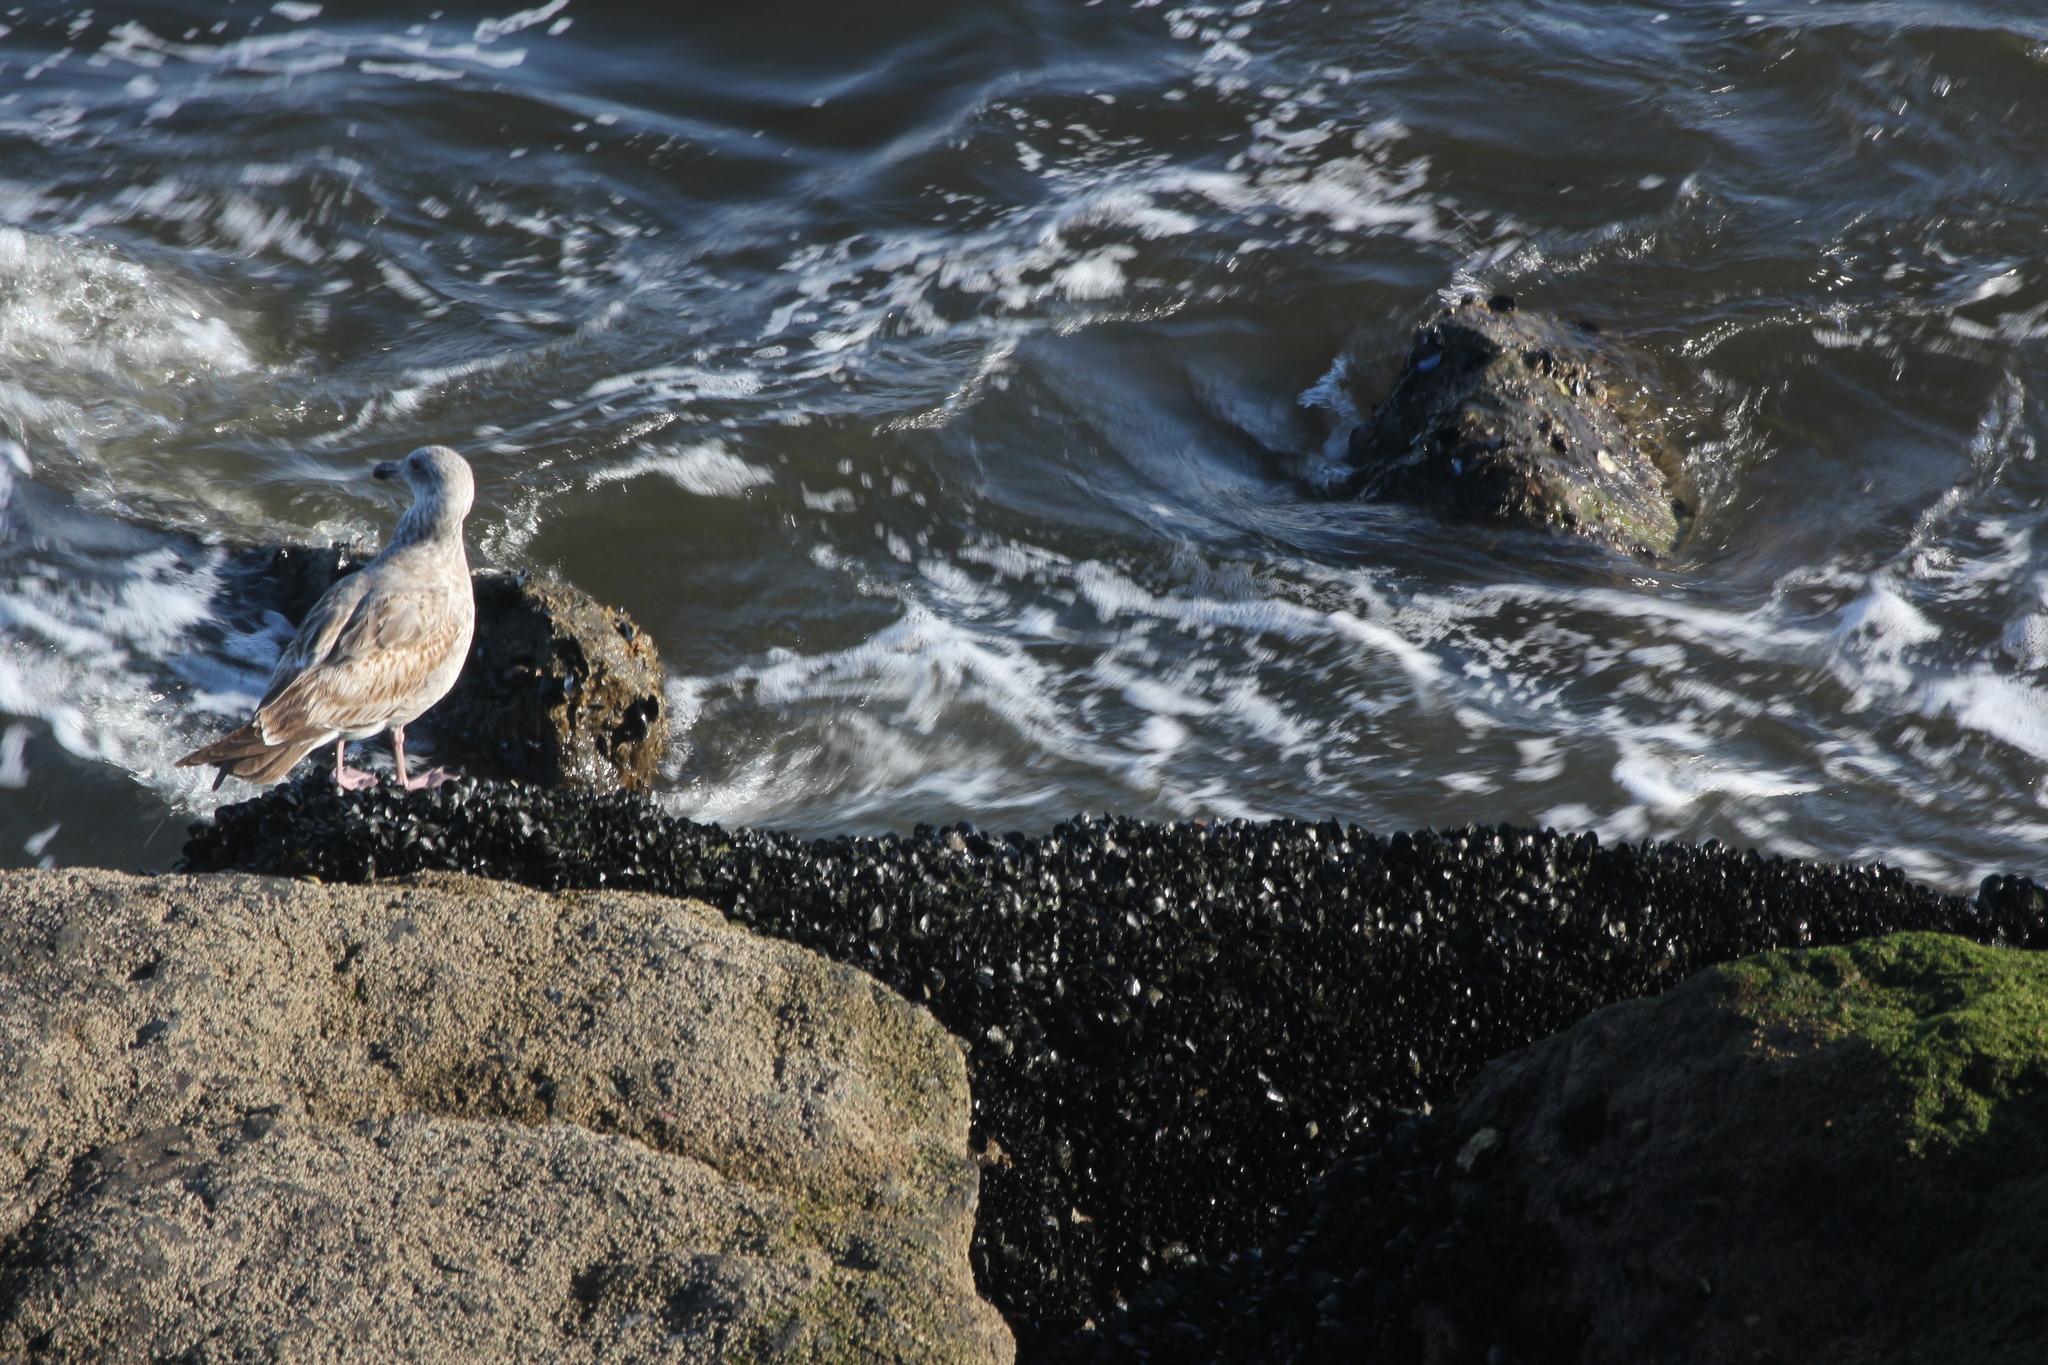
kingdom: Animalia
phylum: Chordata
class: Aves
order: Charadriiformes
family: Laridae
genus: Larus
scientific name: Larus occidentalis
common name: Western gull
